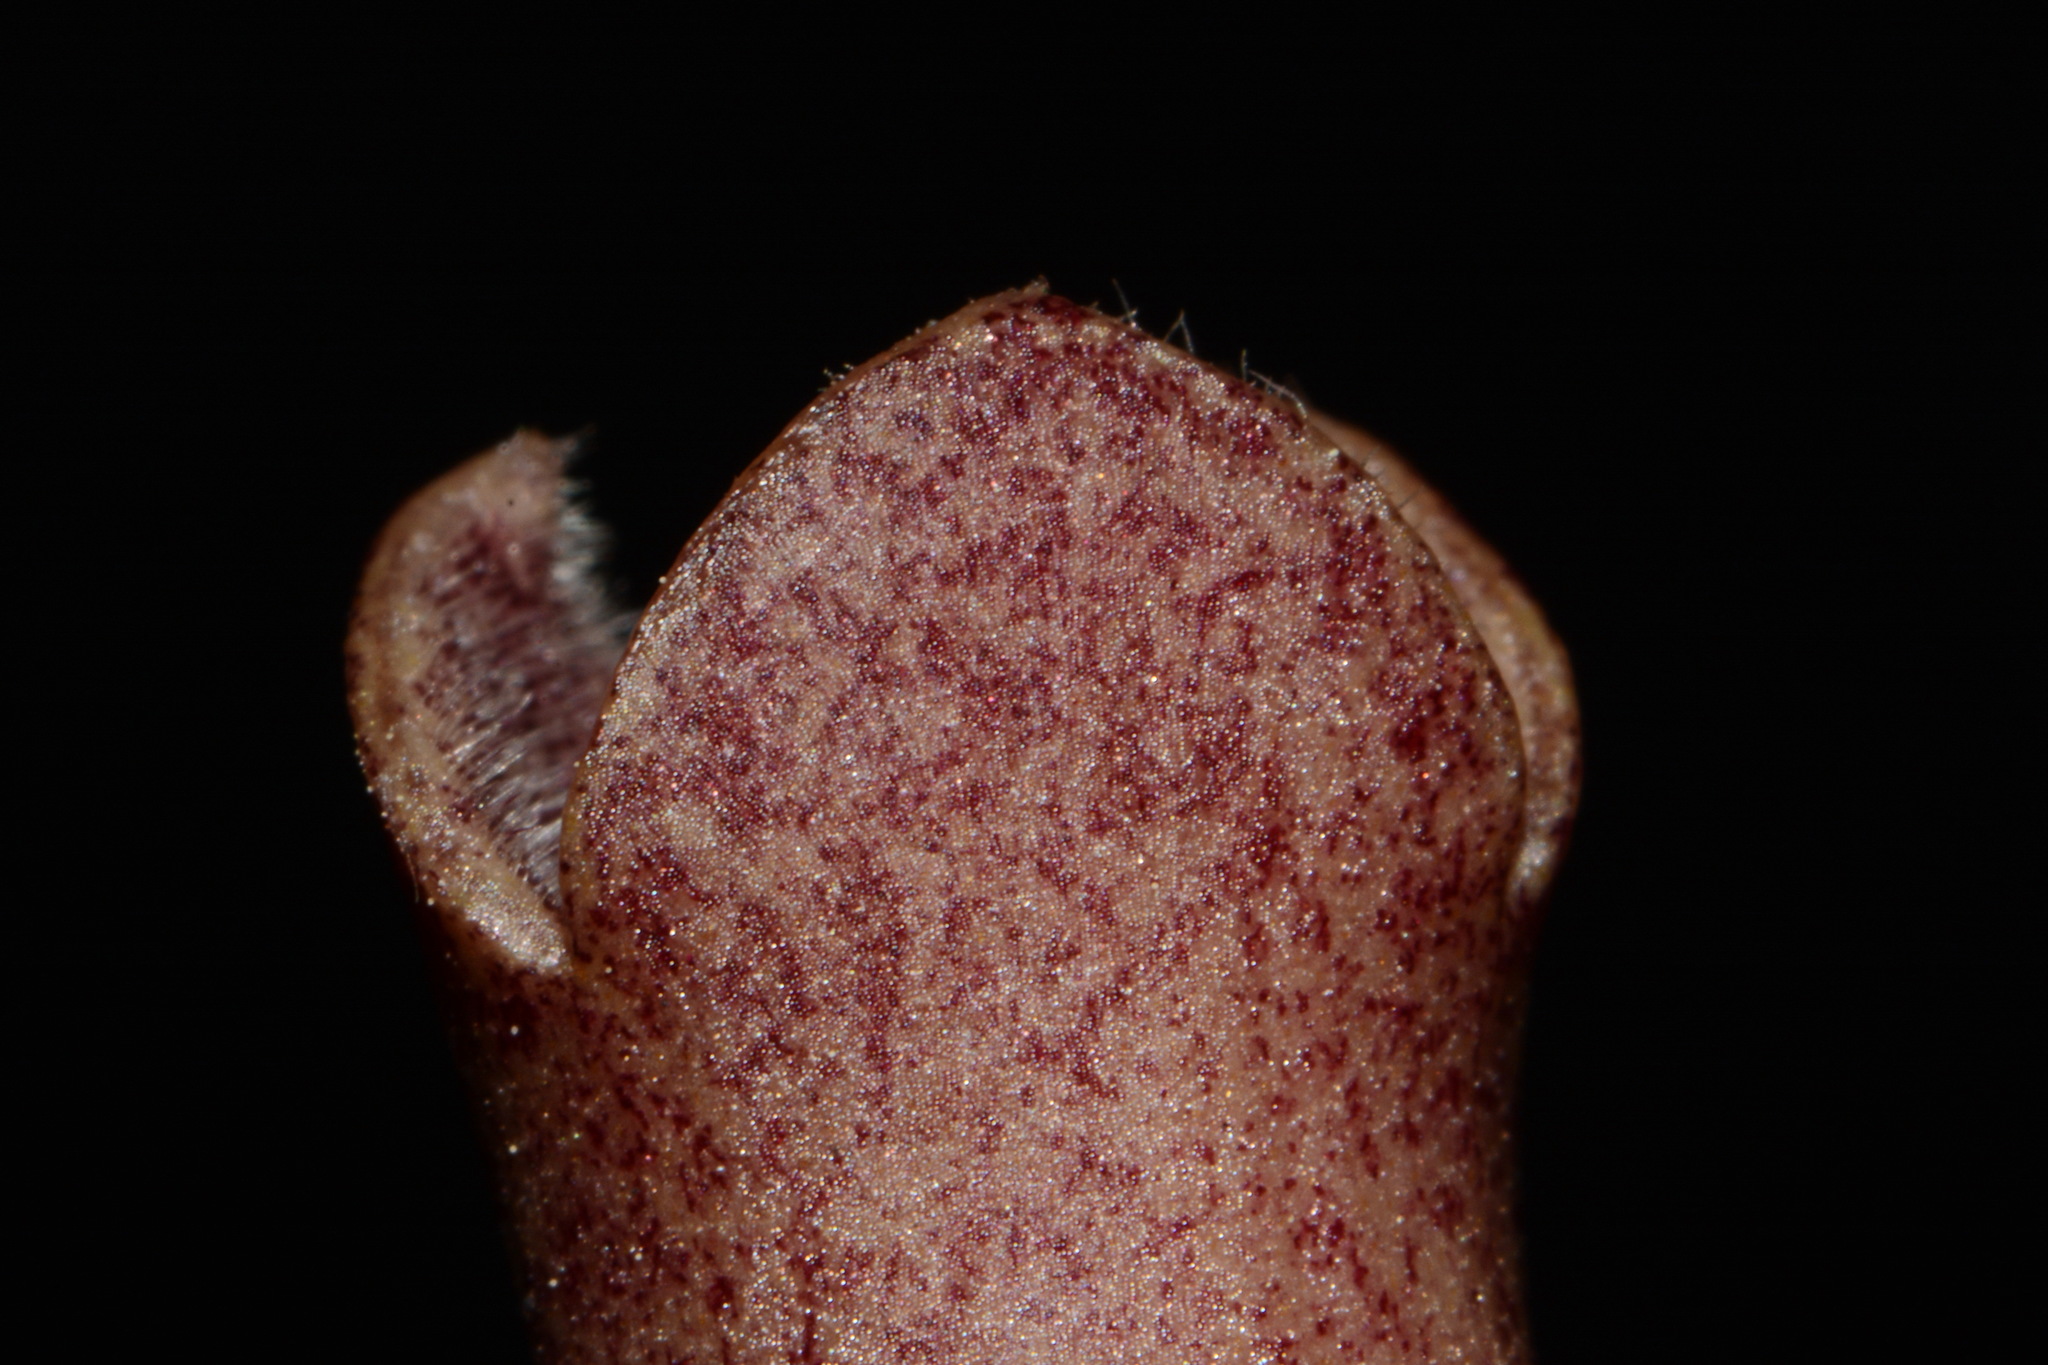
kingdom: Plantae
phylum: Tracheophyta
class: Magnoliopsida
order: Piperales
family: Aristolochiaceae
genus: Hexastylis
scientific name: Hexastylis arifolia
